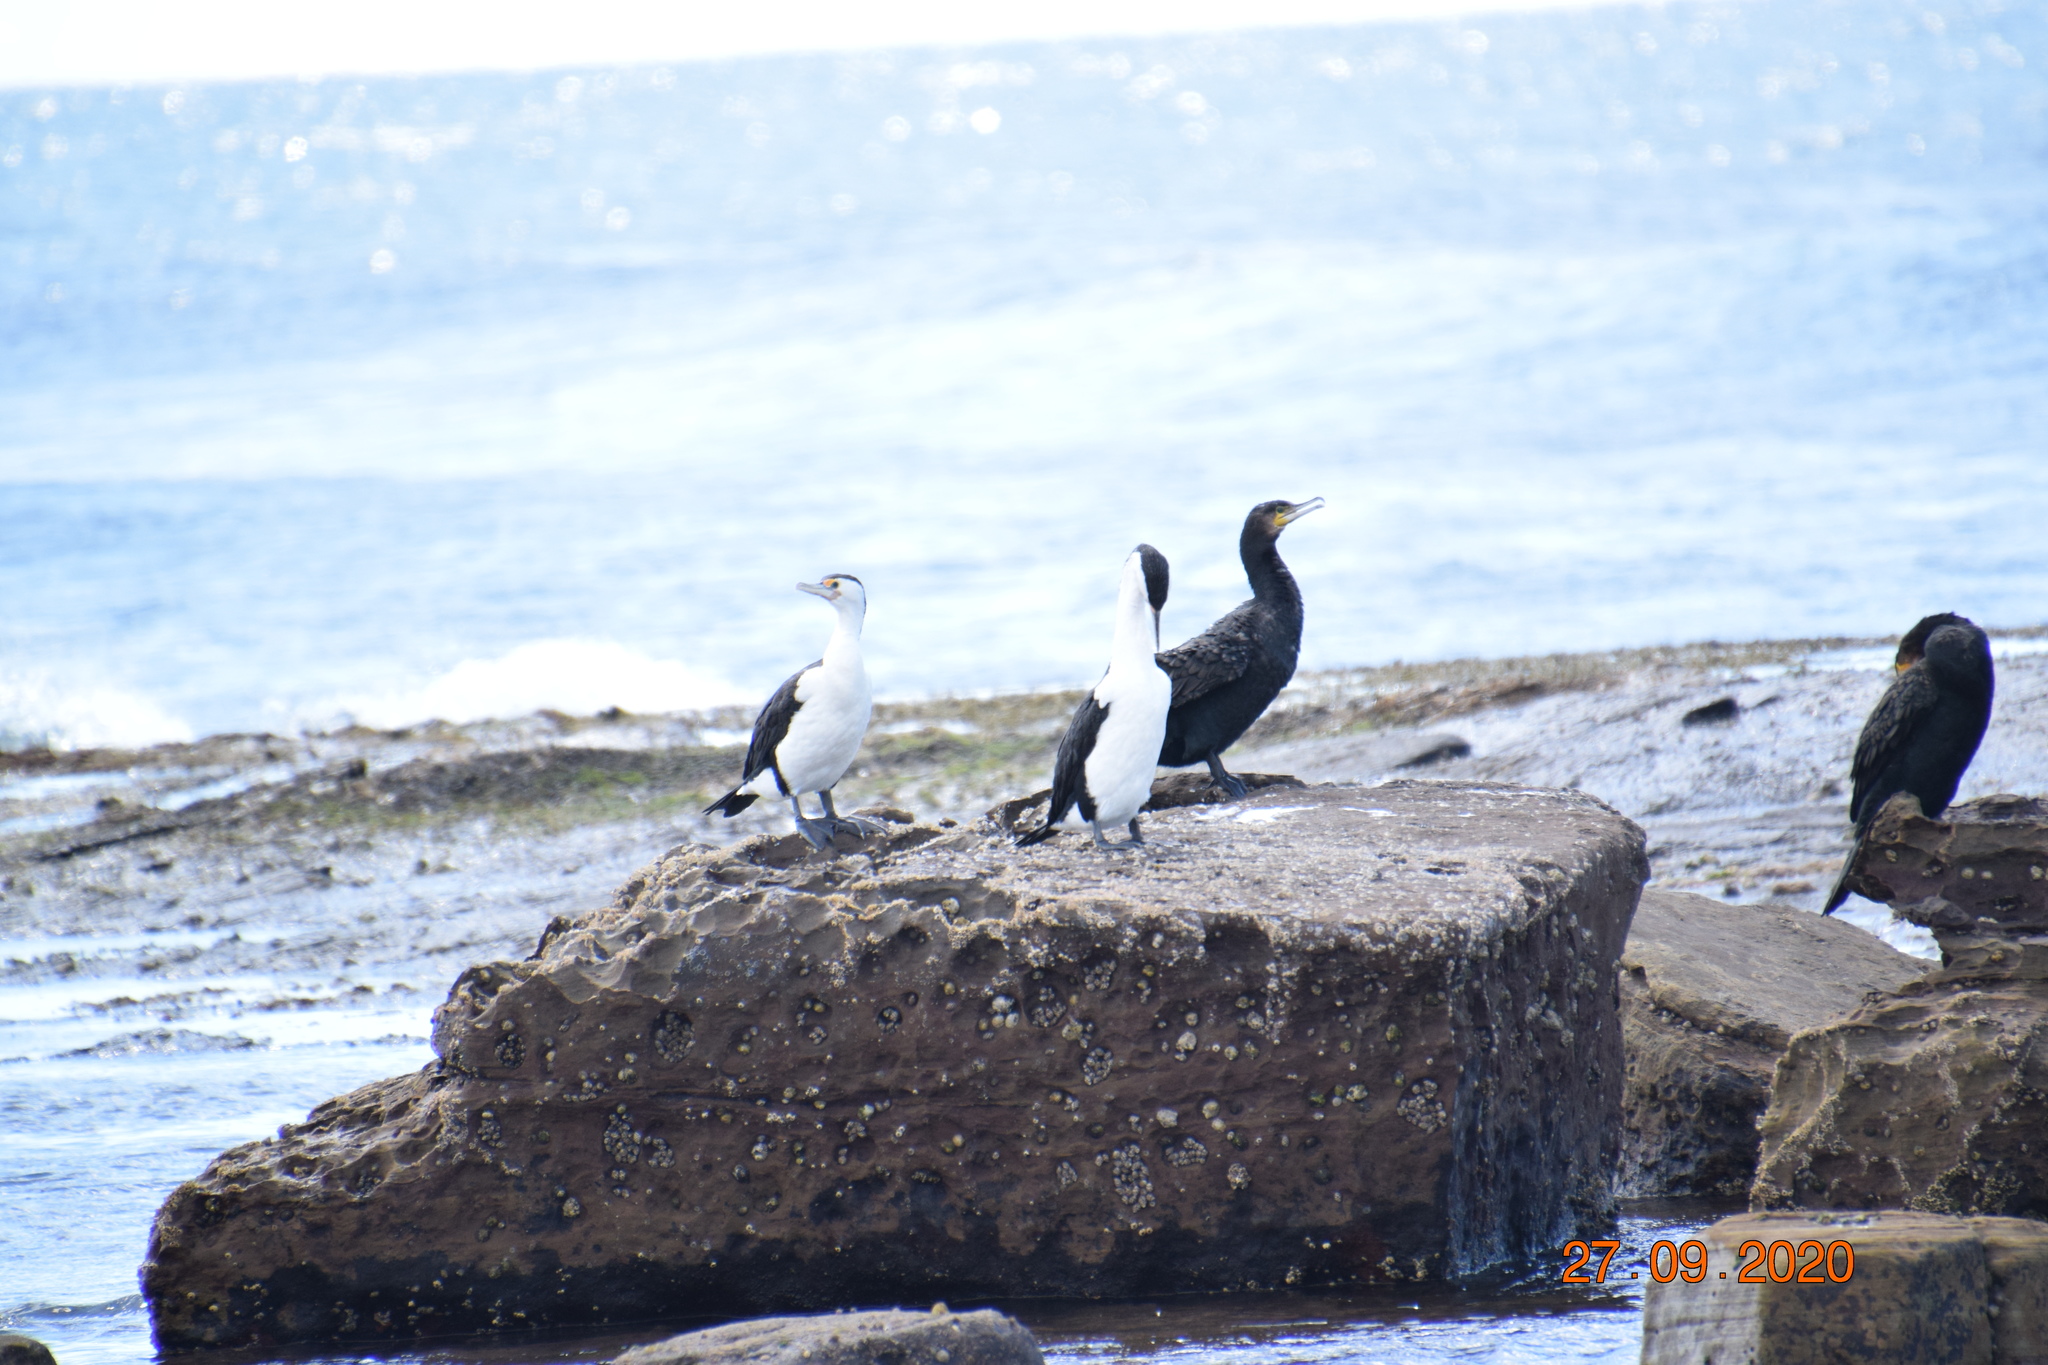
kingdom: Animalia
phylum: Chordata
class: Aves
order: Suliformes
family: Phalacrocoracidae
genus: Phalacrocorax
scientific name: Phalacrocorax carbo
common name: Great cormorant
